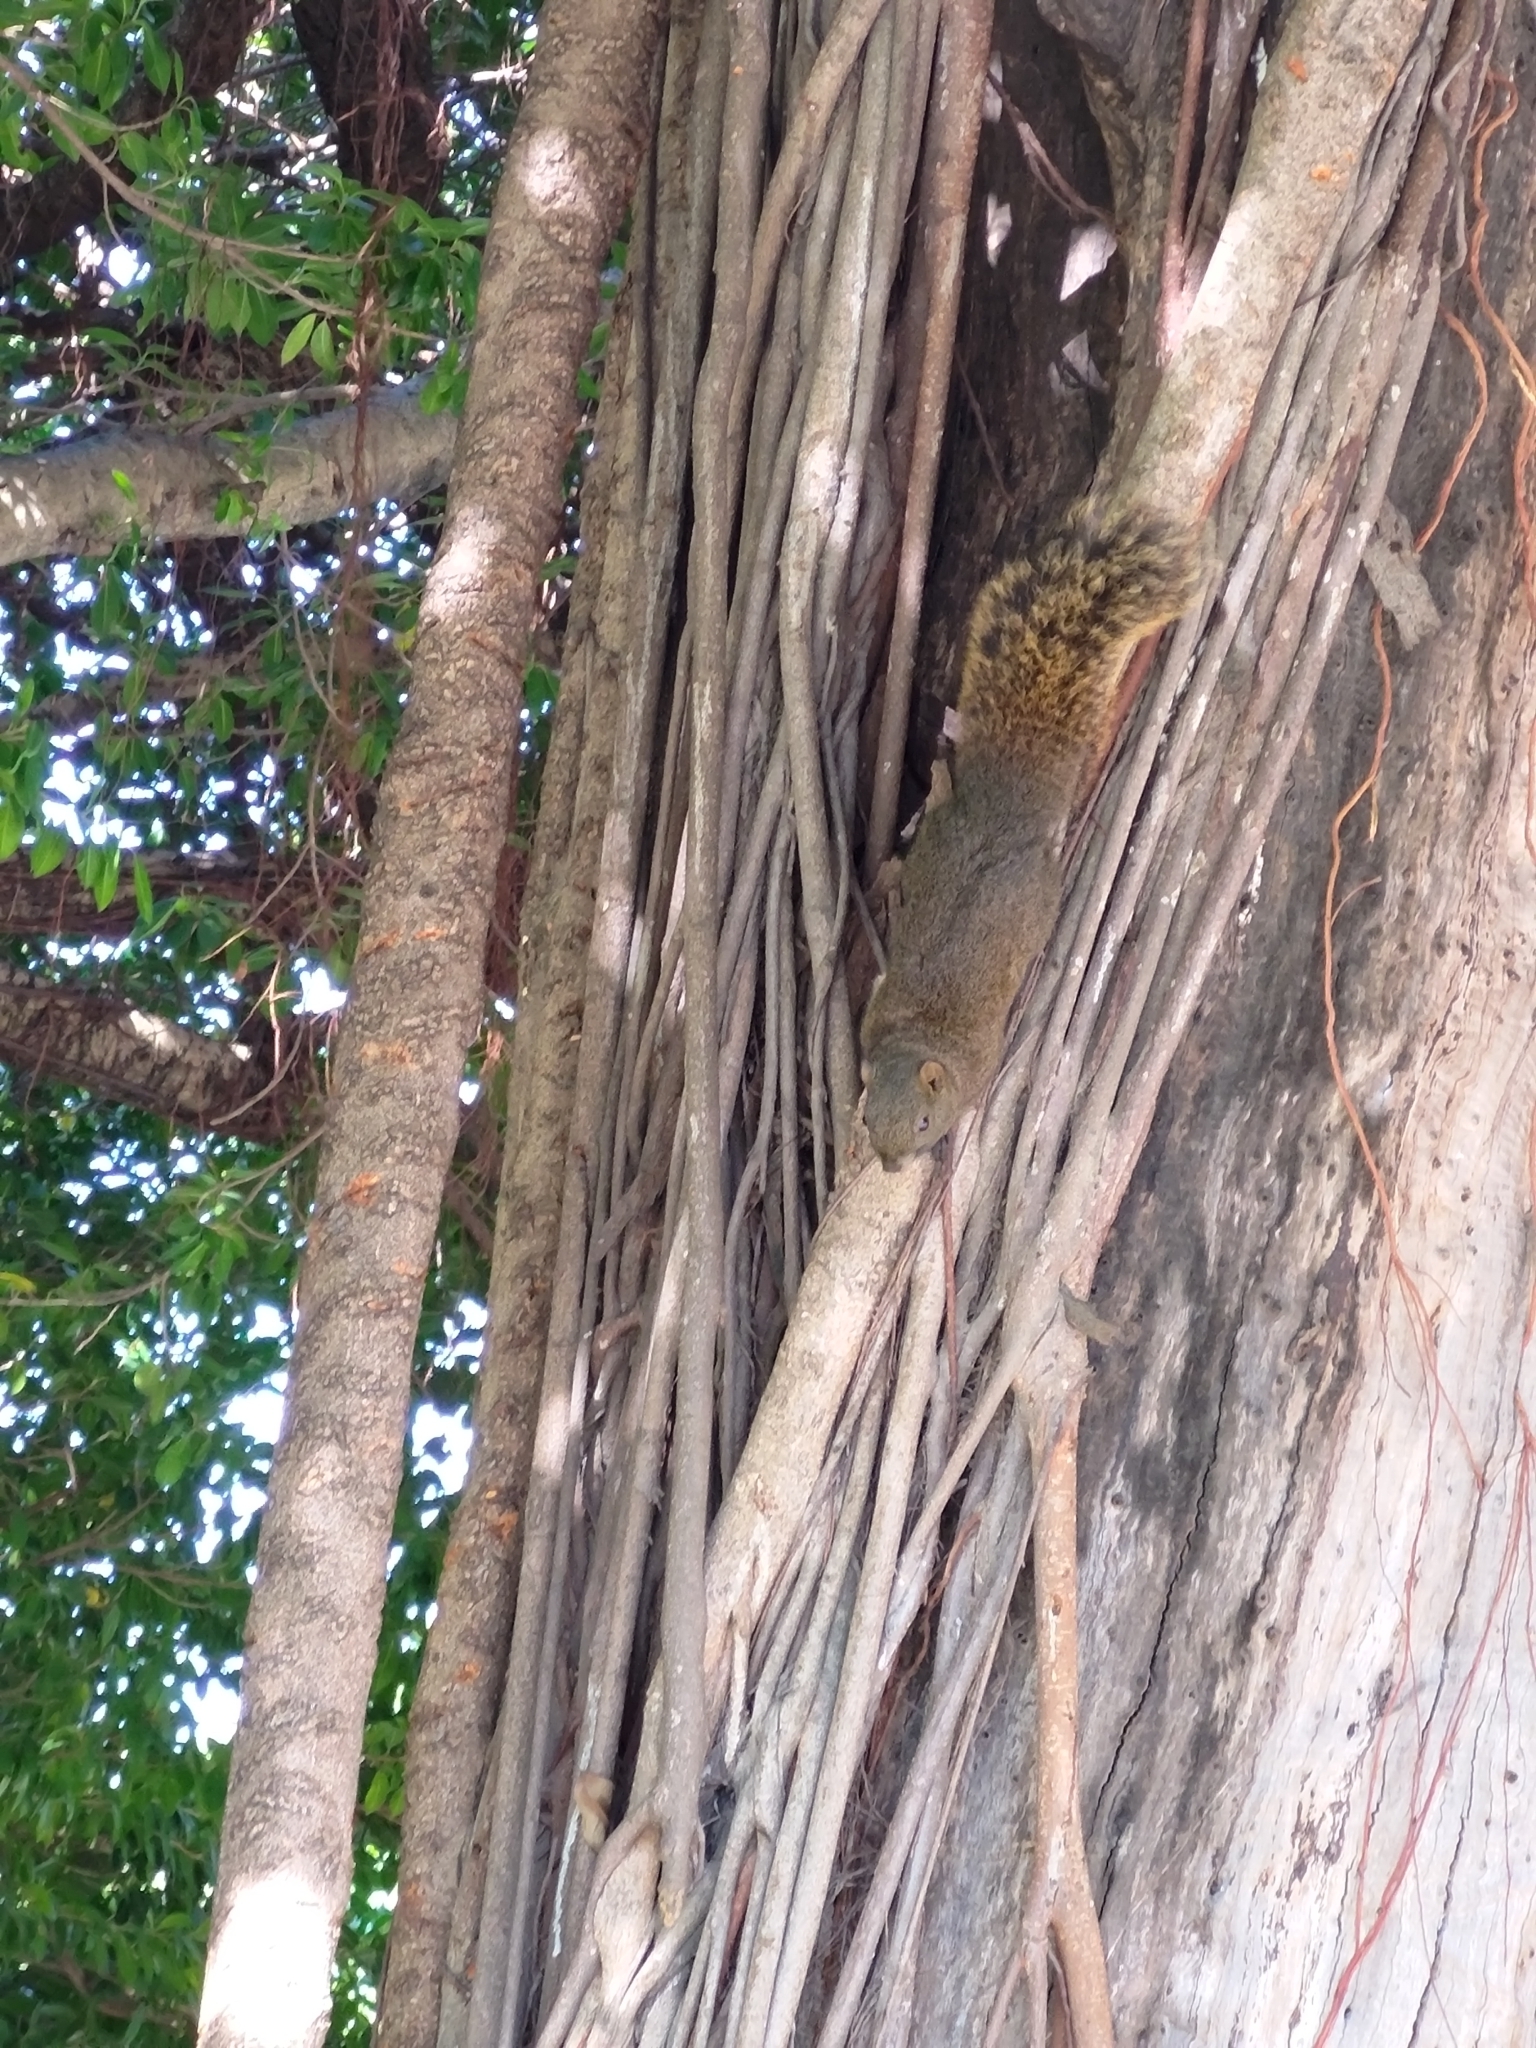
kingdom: Animalia
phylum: Chordata
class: Mammalia
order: Rodentia
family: Sciuridae
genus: Callosciurus
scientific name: Callosciurus erythraeus
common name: Pallas's squirrel
